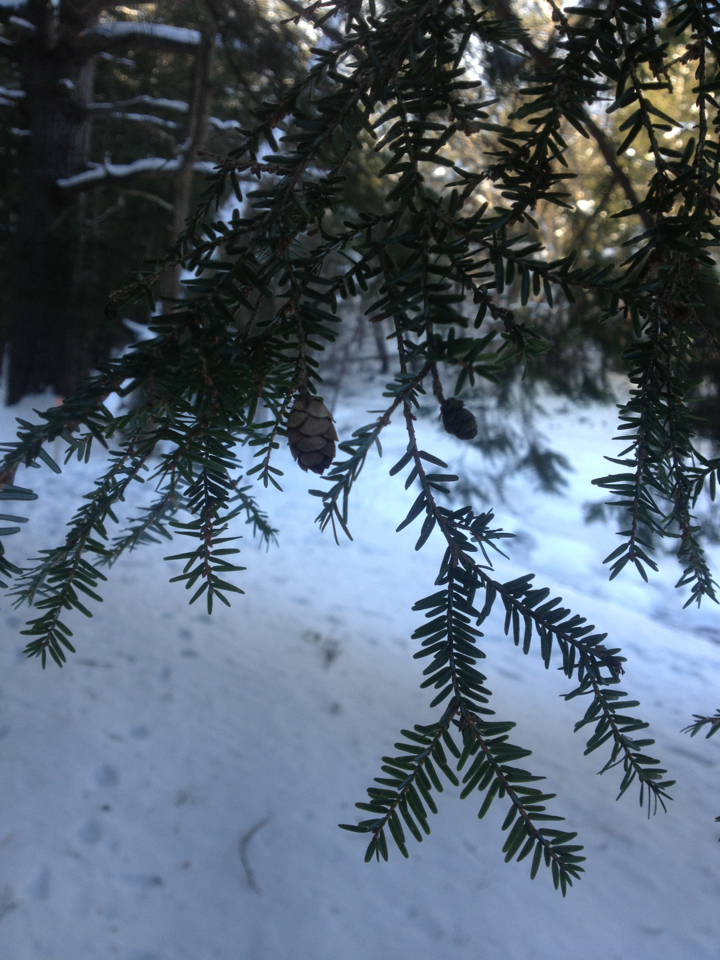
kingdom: Plantae
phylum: Tracheophyta
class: Pinopsida
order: Pinales
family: Pinaceae
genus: Tsuga
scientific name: Tsuga canadensis
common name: Eastern hemlock
